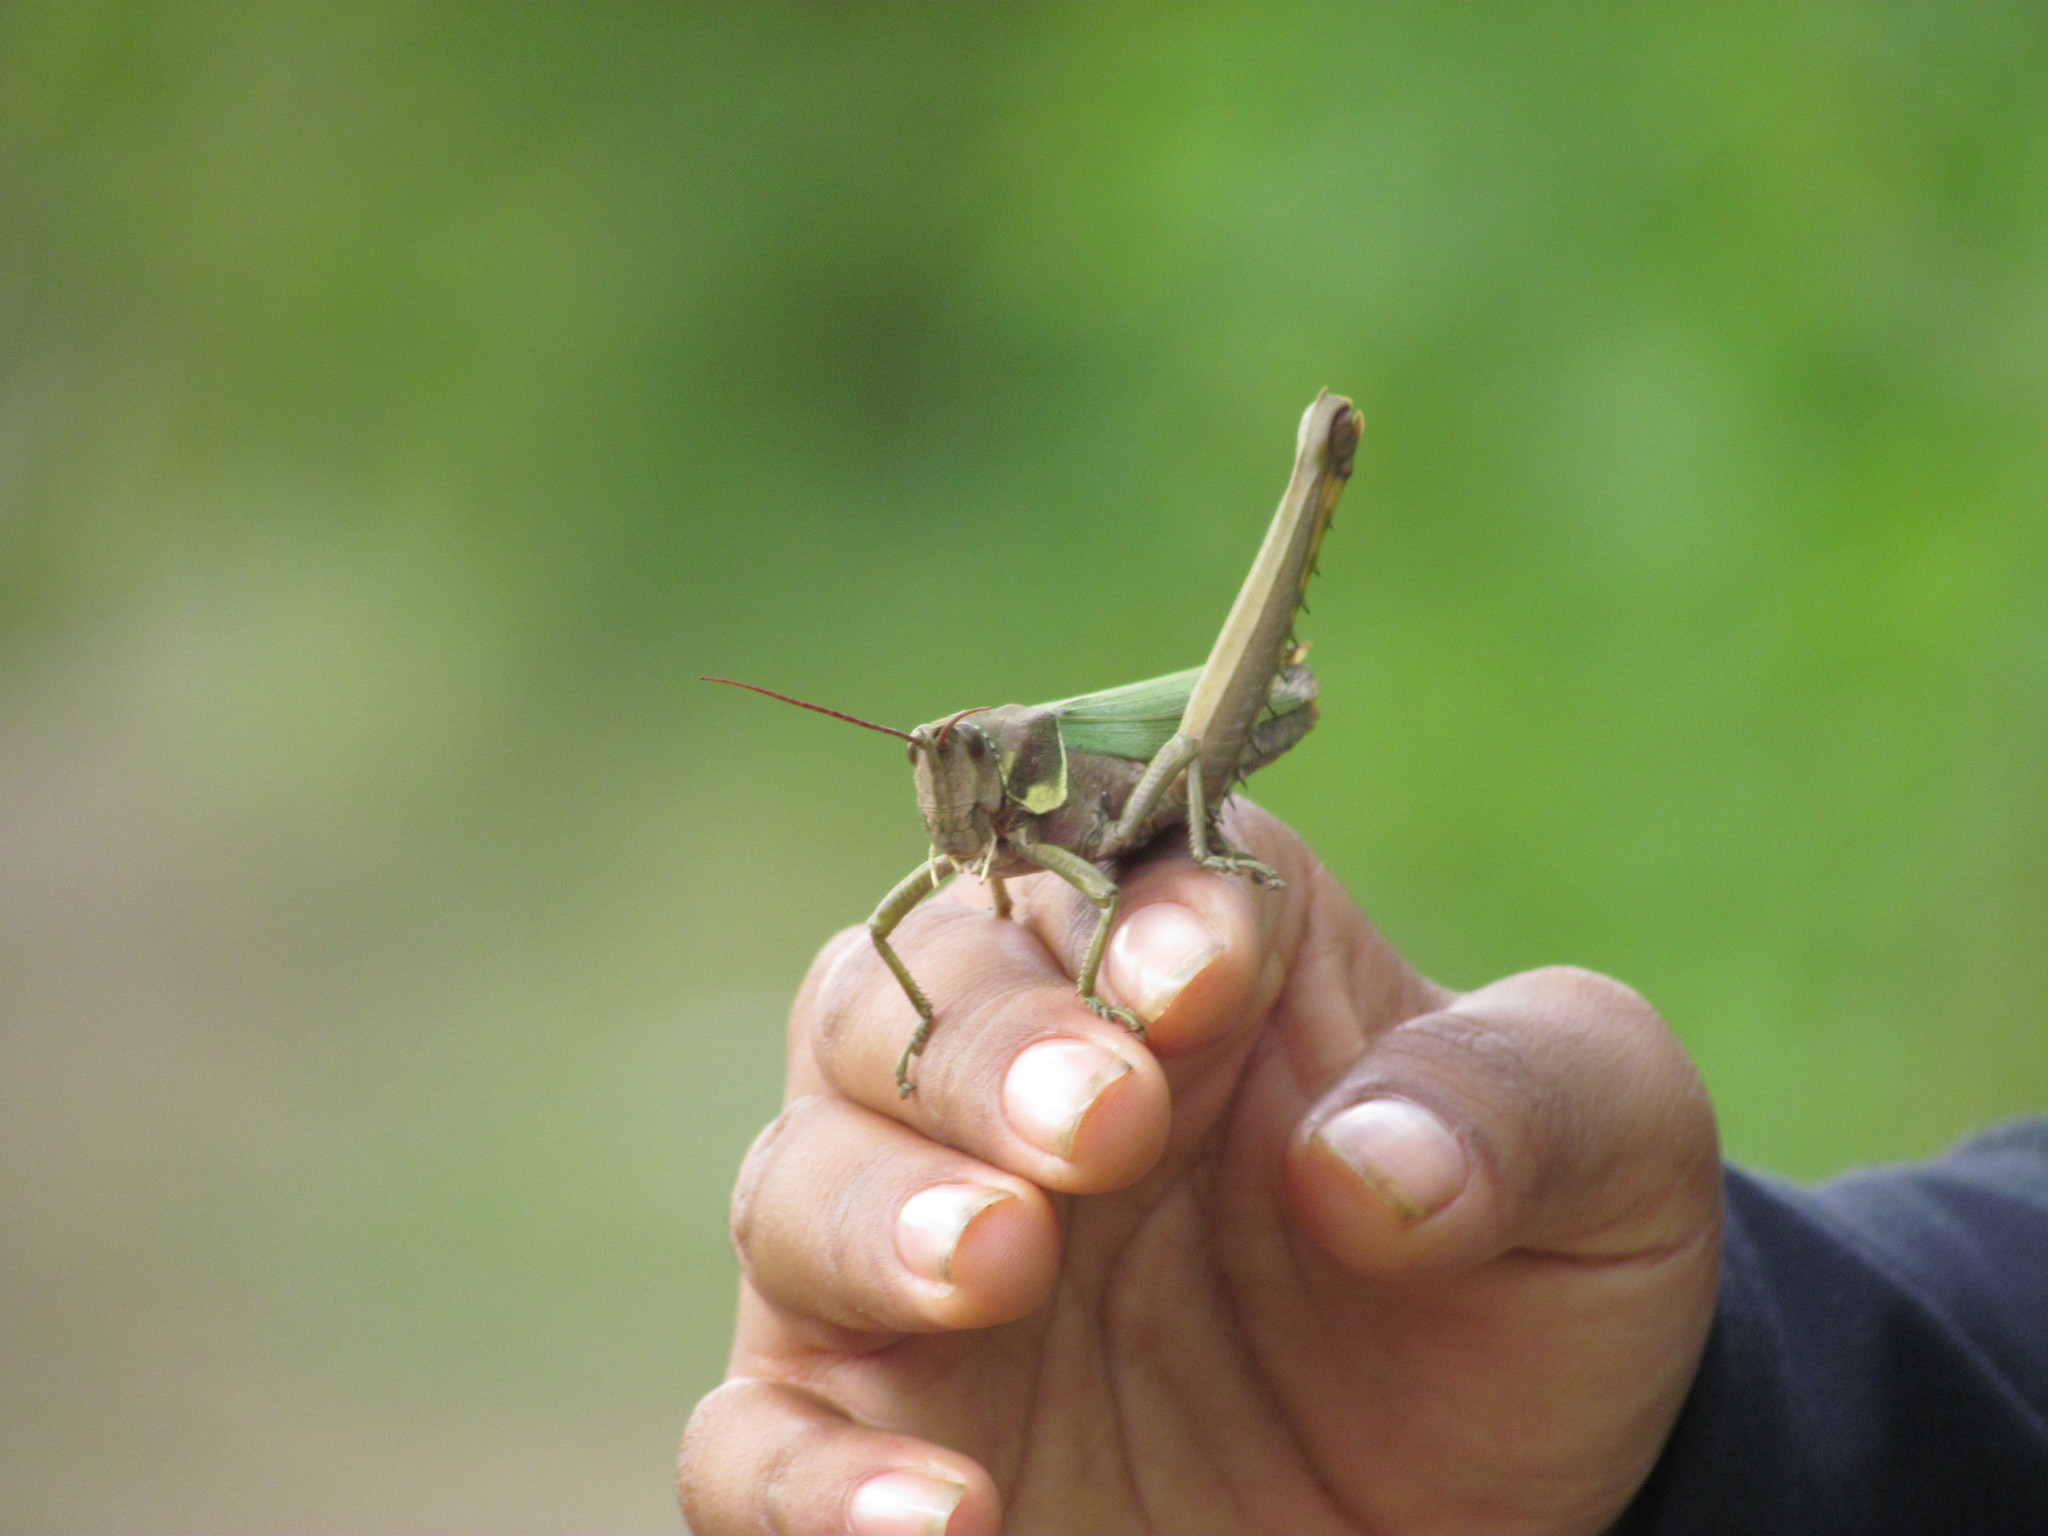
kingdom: Animalia
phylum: Arthropoda
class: Insecta
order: Orthoptera
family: Romaleidae
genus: Coryacris
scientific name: Coryacris angustipennis
